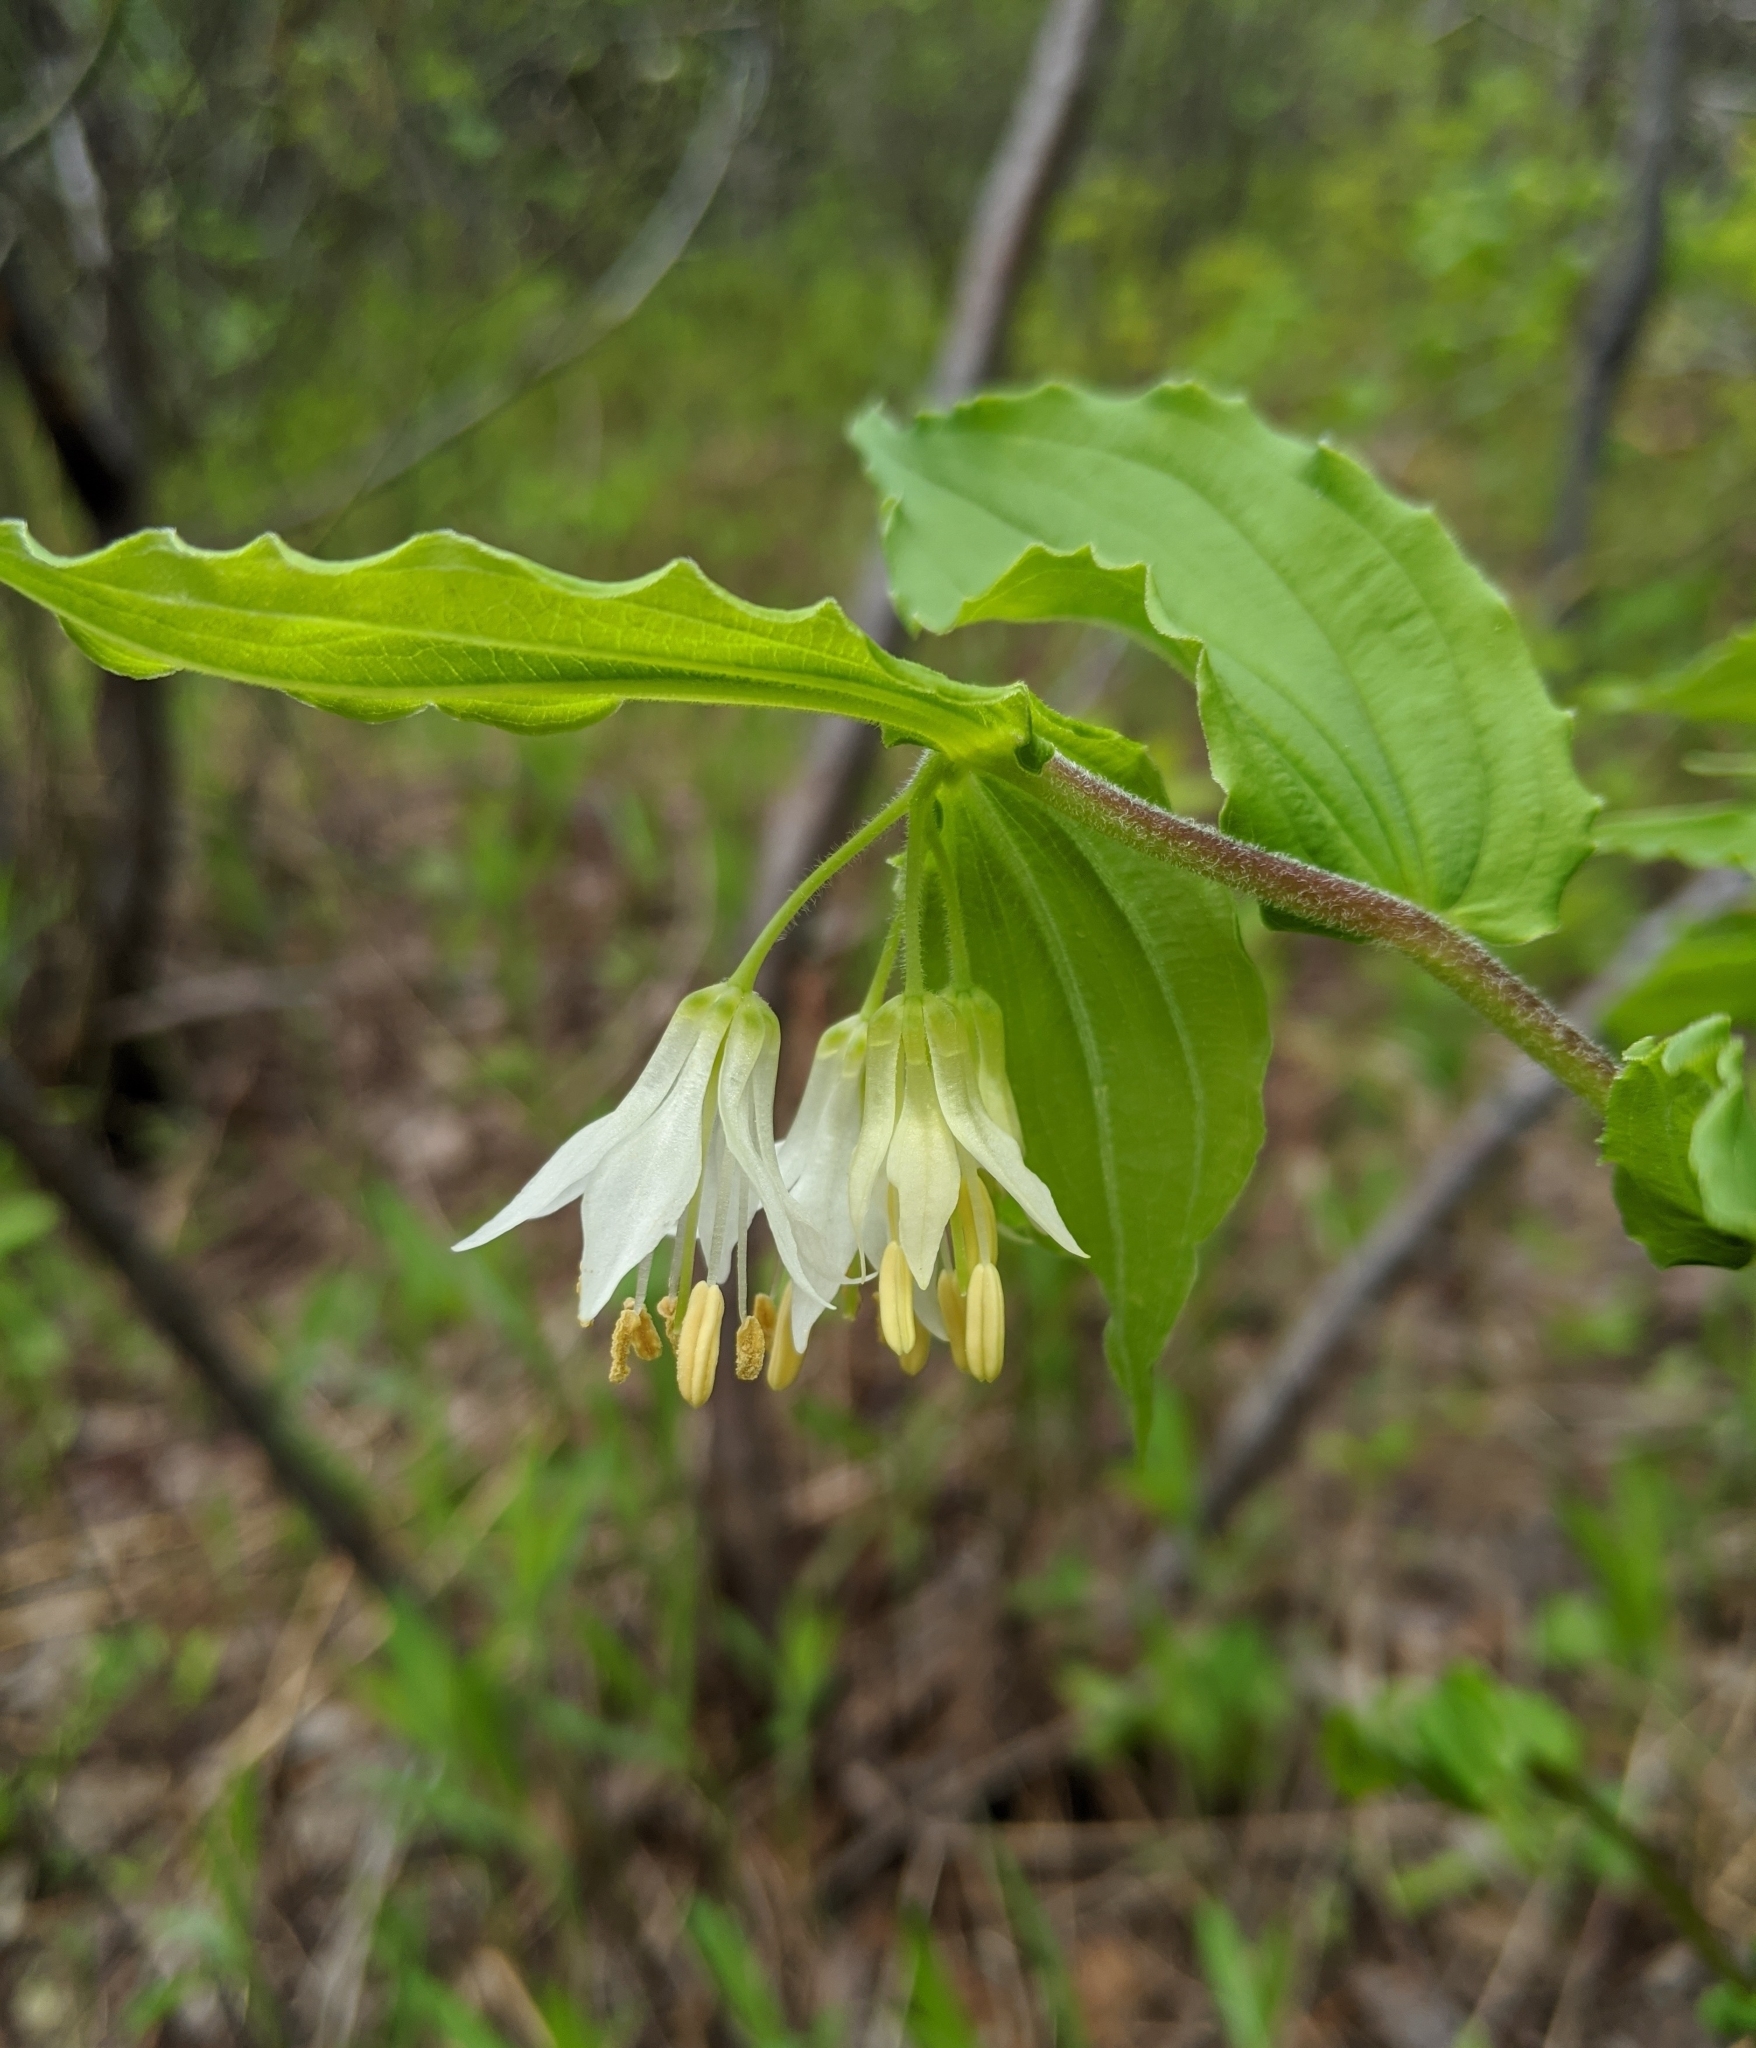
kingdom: Plantae
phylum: Tracheophyta
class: Liliopsida
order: Liliales
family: Liliaceae
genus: Prosartes
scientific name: Prosartes hookeri
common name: Fairy-bells
